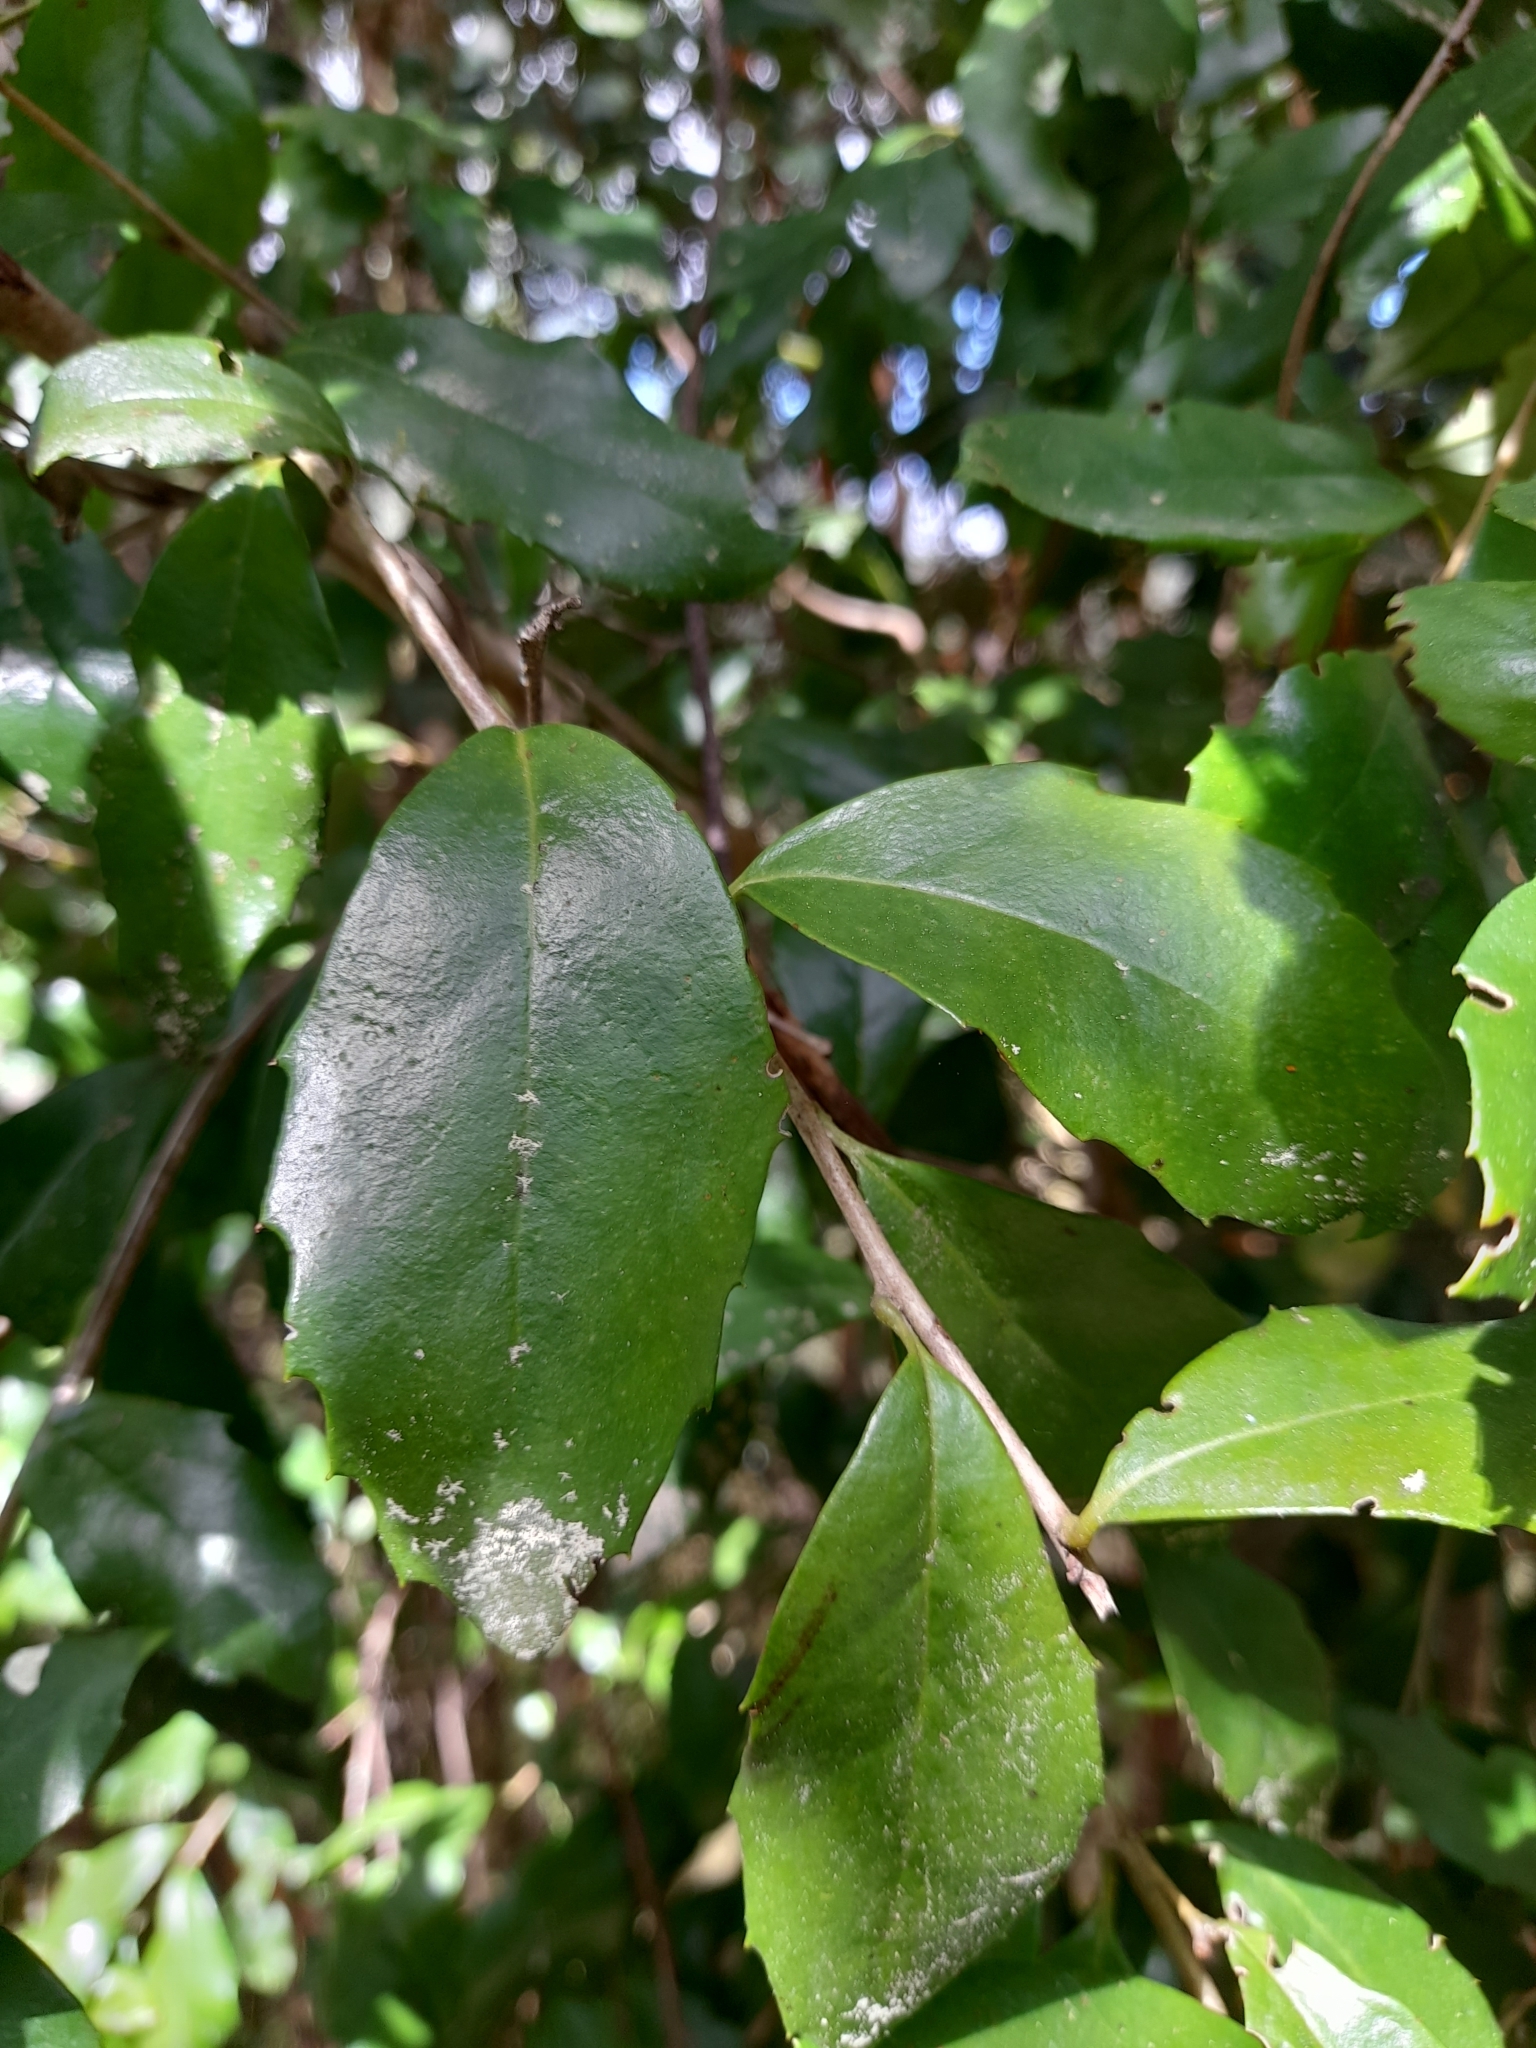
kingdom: Plantae
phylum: Tracheophyta
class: Magnoliopsida
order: Proteales
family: Proteaceae
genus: Lomatia
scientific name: Lomatia dentata
